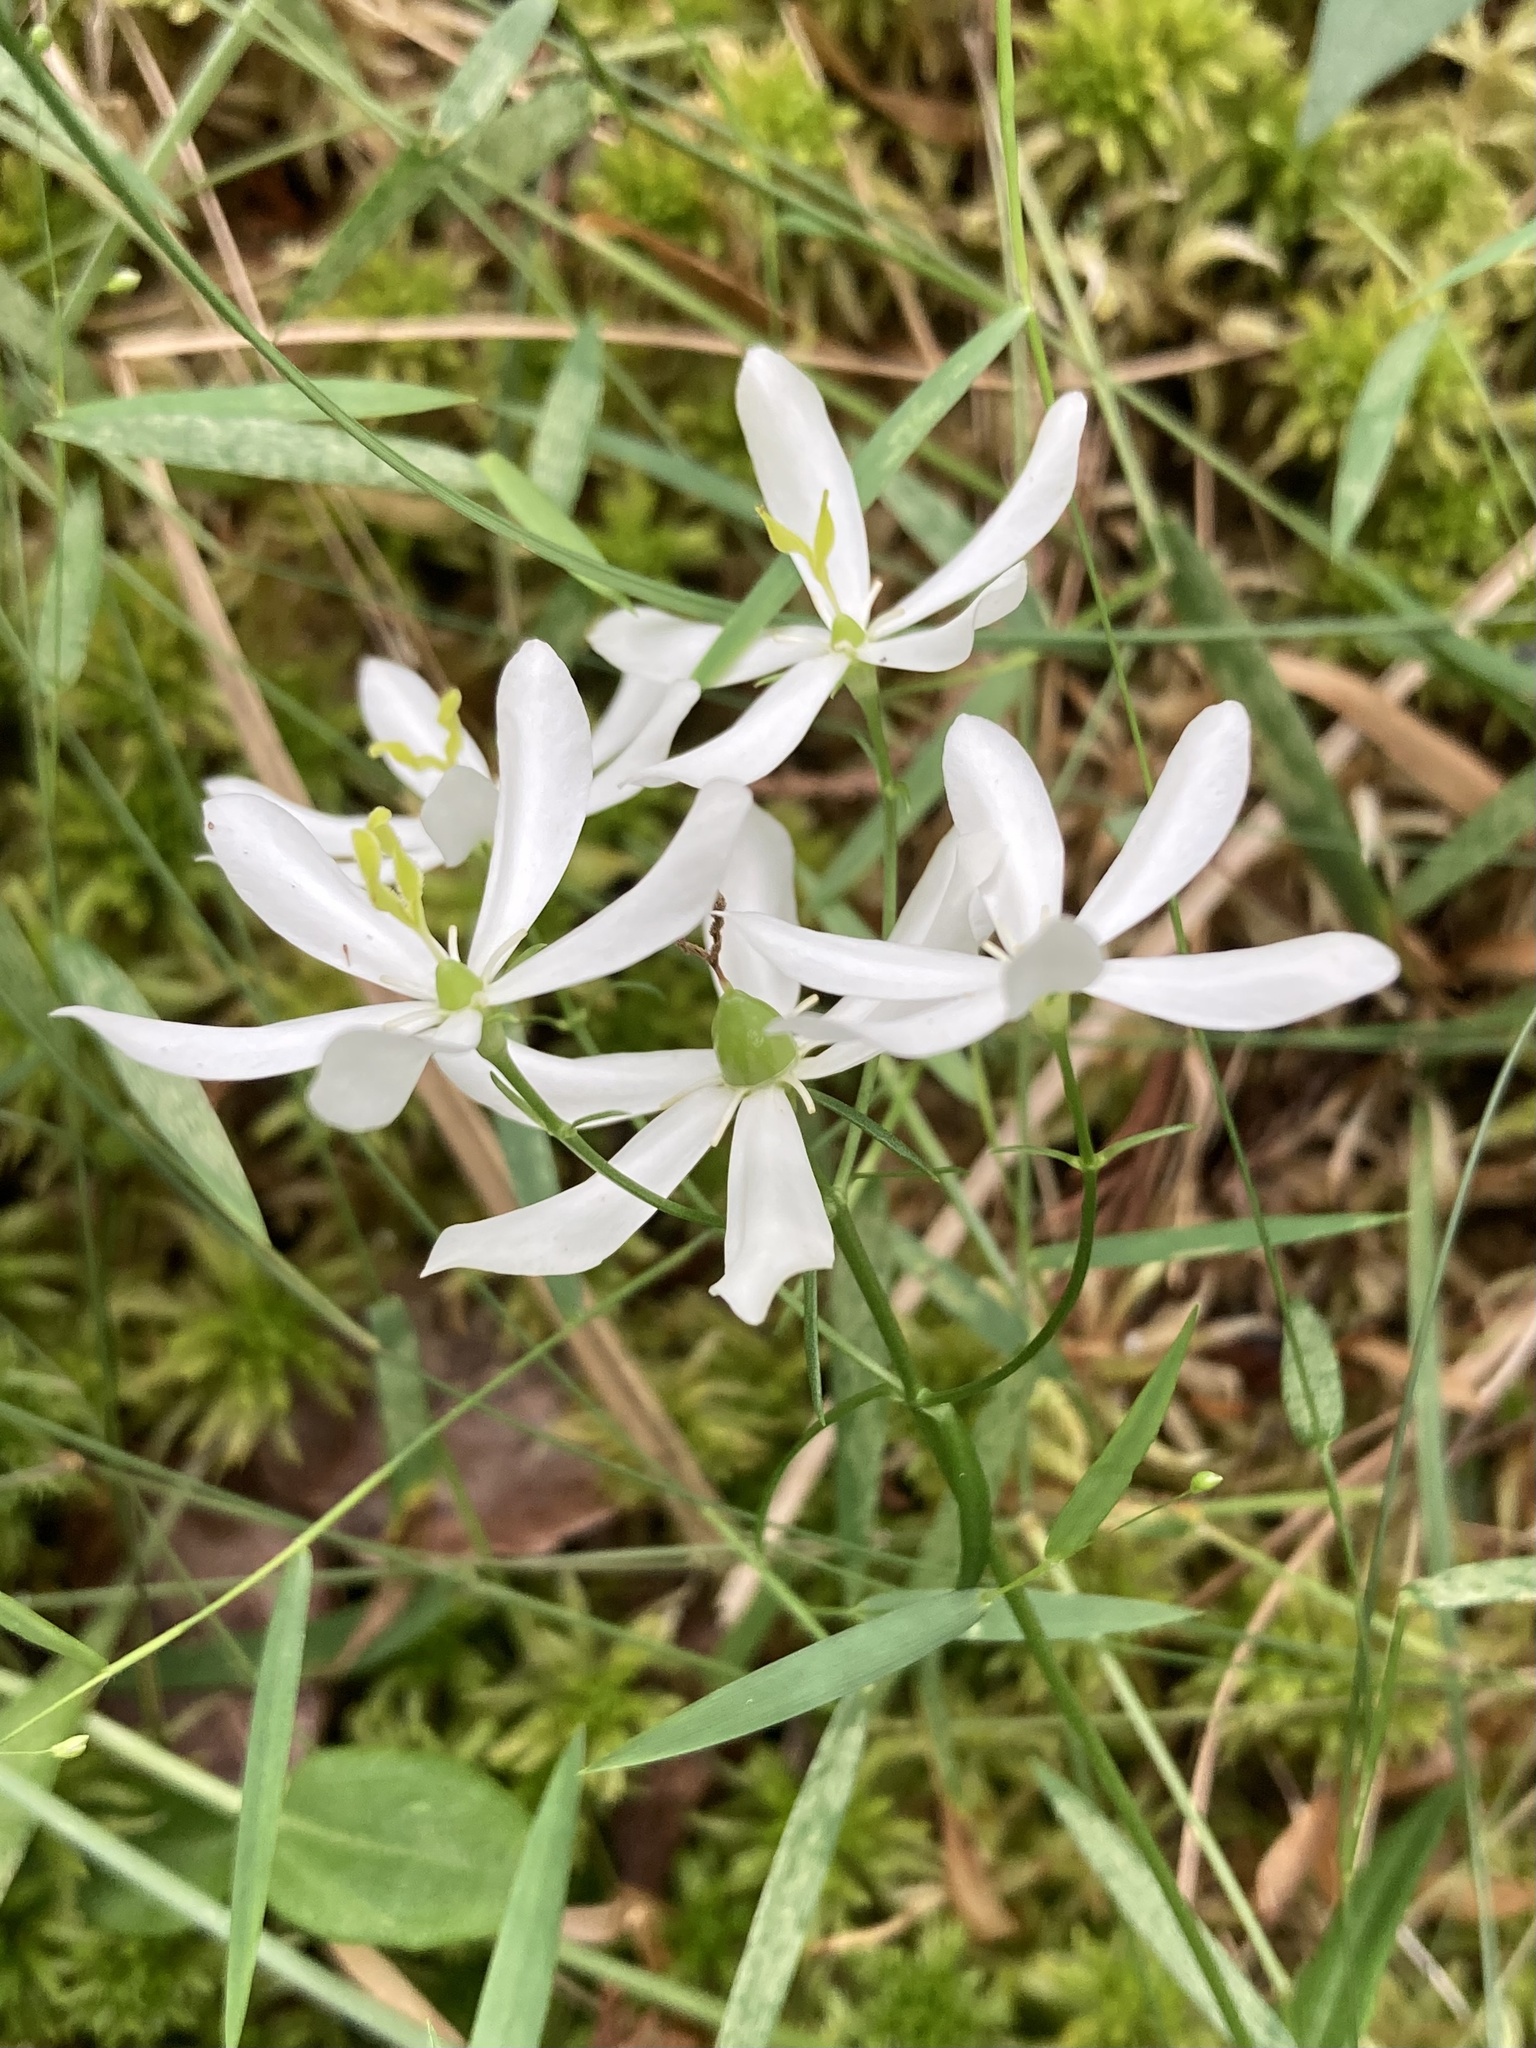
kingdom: Plantae
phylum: Tracheophyta
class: Magnoliopsida
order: Gentianales
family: Gentianaceae
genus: Sabatia
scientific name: Sabatia difformis
